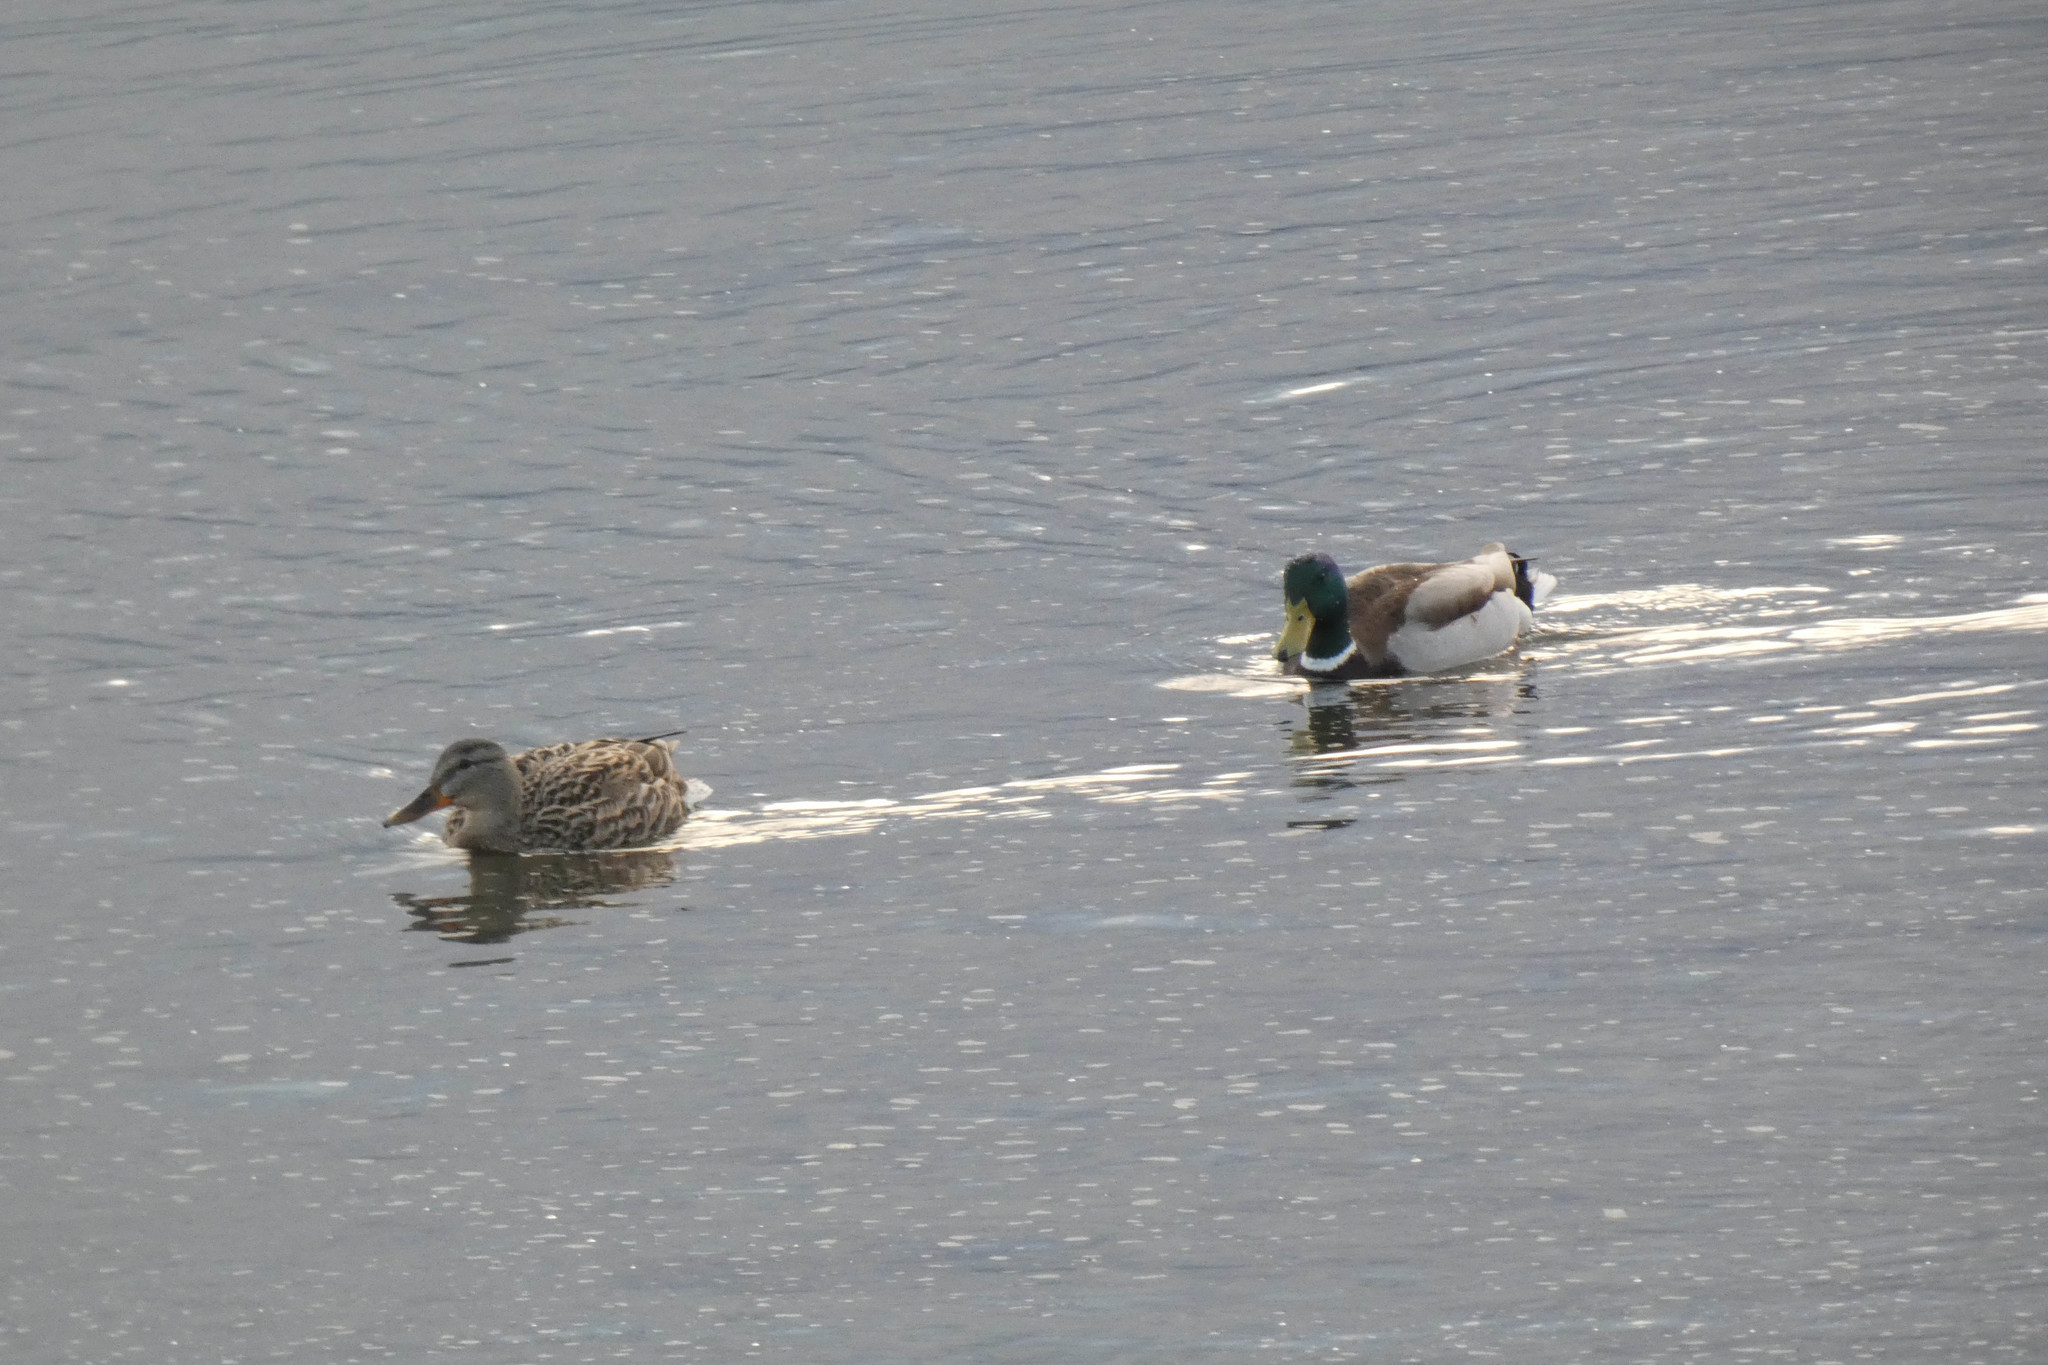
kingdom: Animalia
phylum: Chordata
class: Aves
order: Anseriformes
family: Anatidae
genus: Anas
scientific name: Anas platyrhynchos
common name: Mallard
